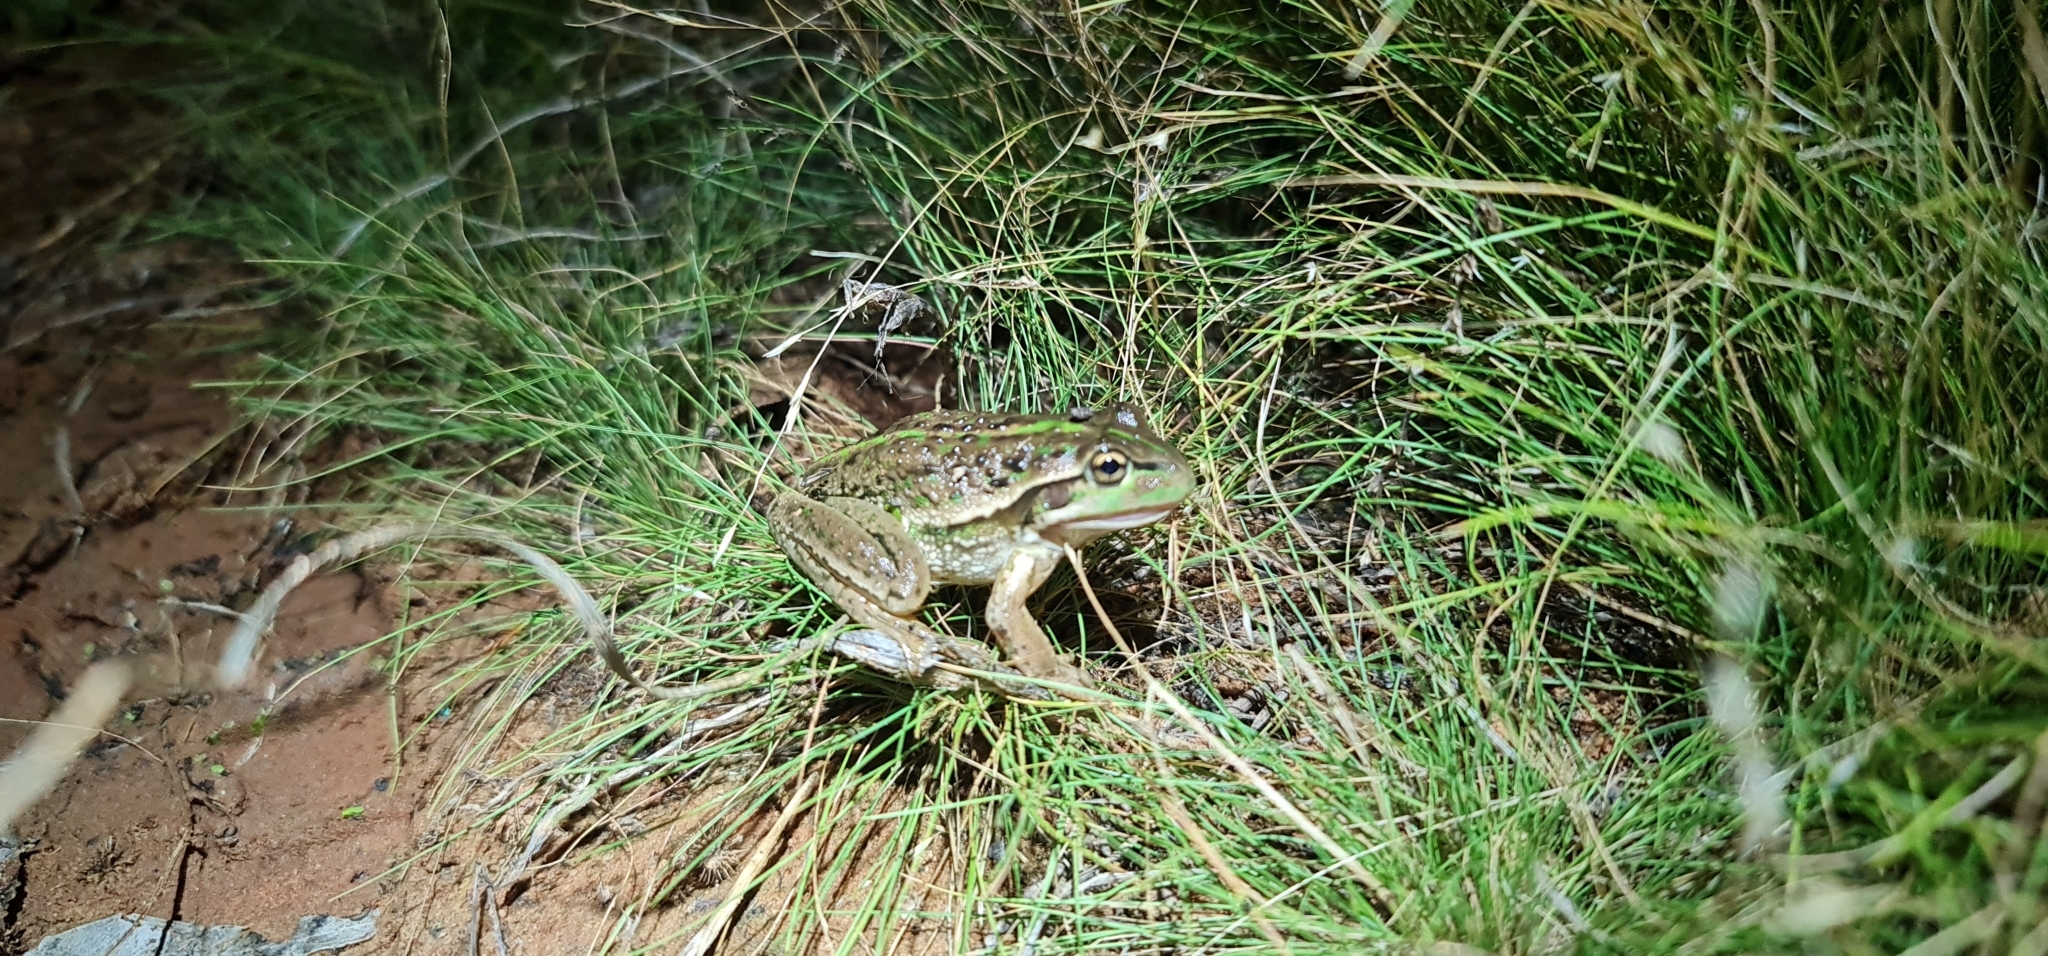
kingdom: Animalia
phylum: Chordata
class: Amphibia
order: Anura
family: Pelodryadidae
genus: Ranoidea
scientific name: Ranoidea raniformis
